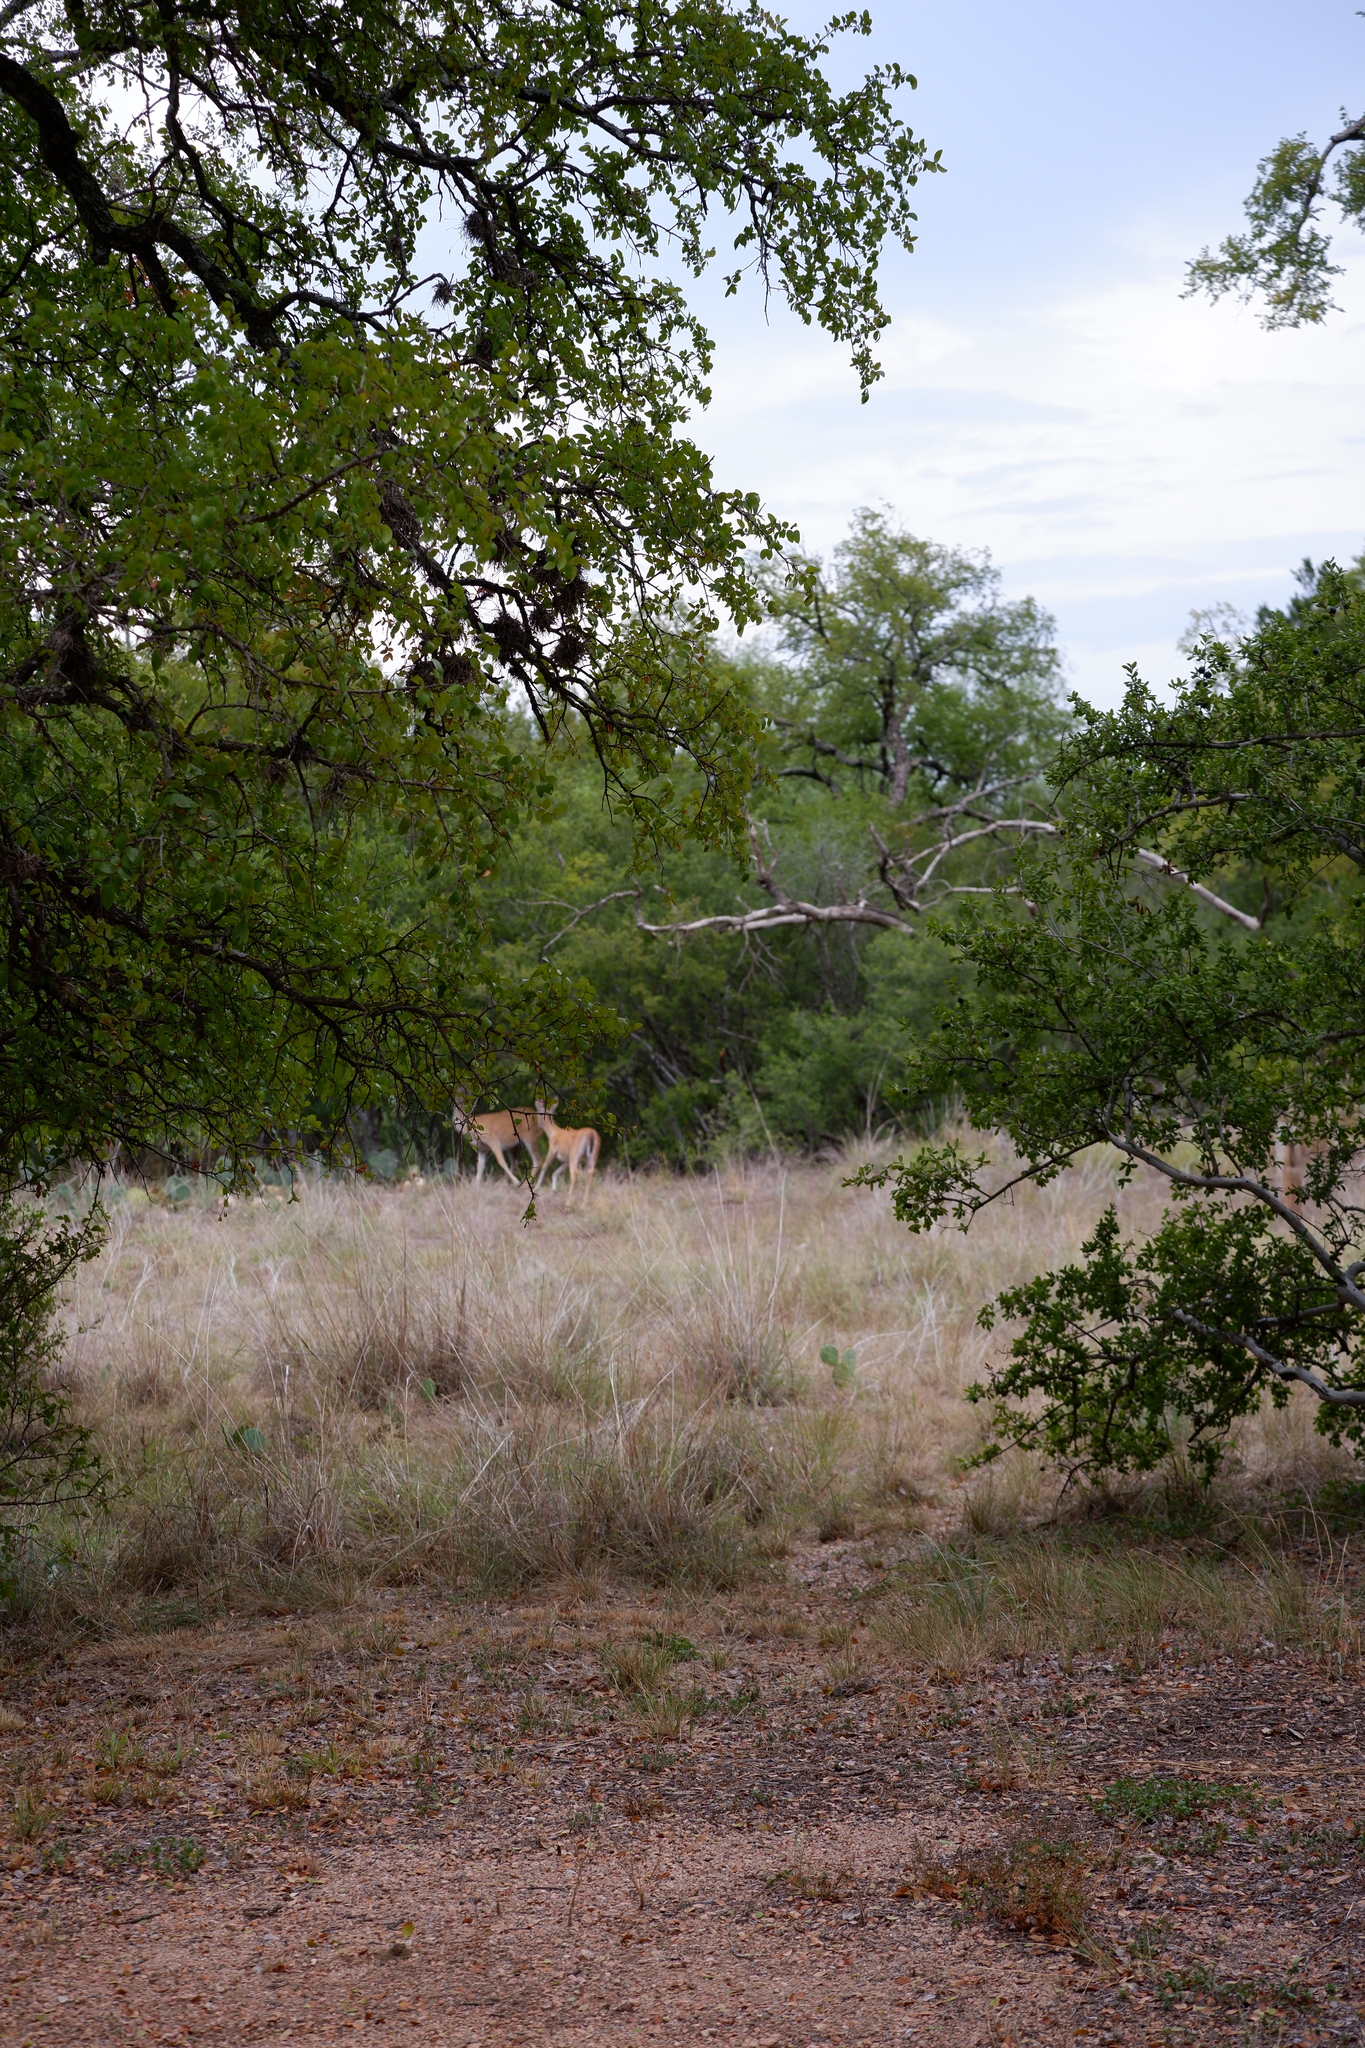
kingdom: Animalia
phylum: Chordata
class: Mammalia
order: Artiodactyla
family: Cervidae
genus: Odocoileus
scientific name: Odocoileus virginianus
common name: White-tailed deer
